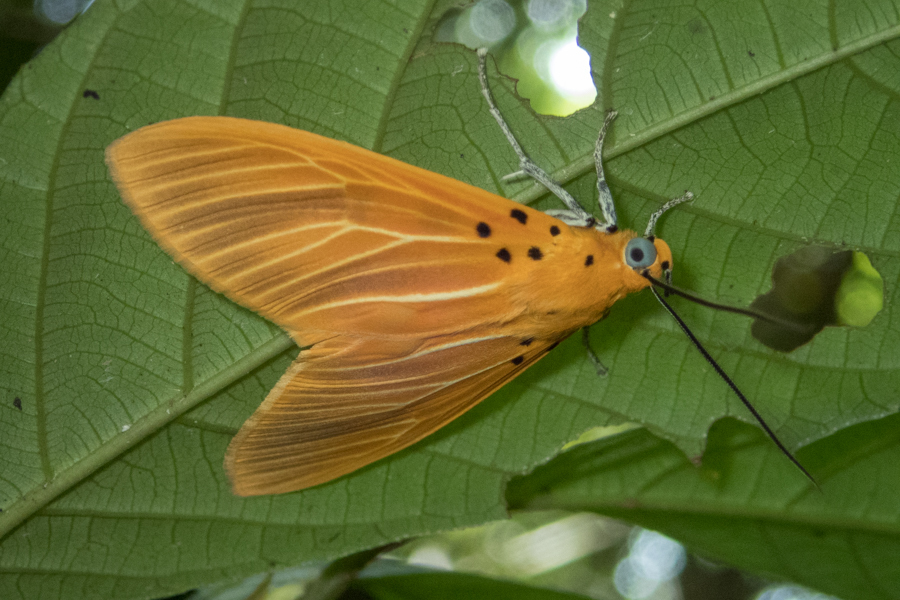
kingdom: Animalia
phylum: Arthropoda
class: Insecta
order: Lepidoptera
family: Erebidae
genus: Asota
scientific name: Asota egens
